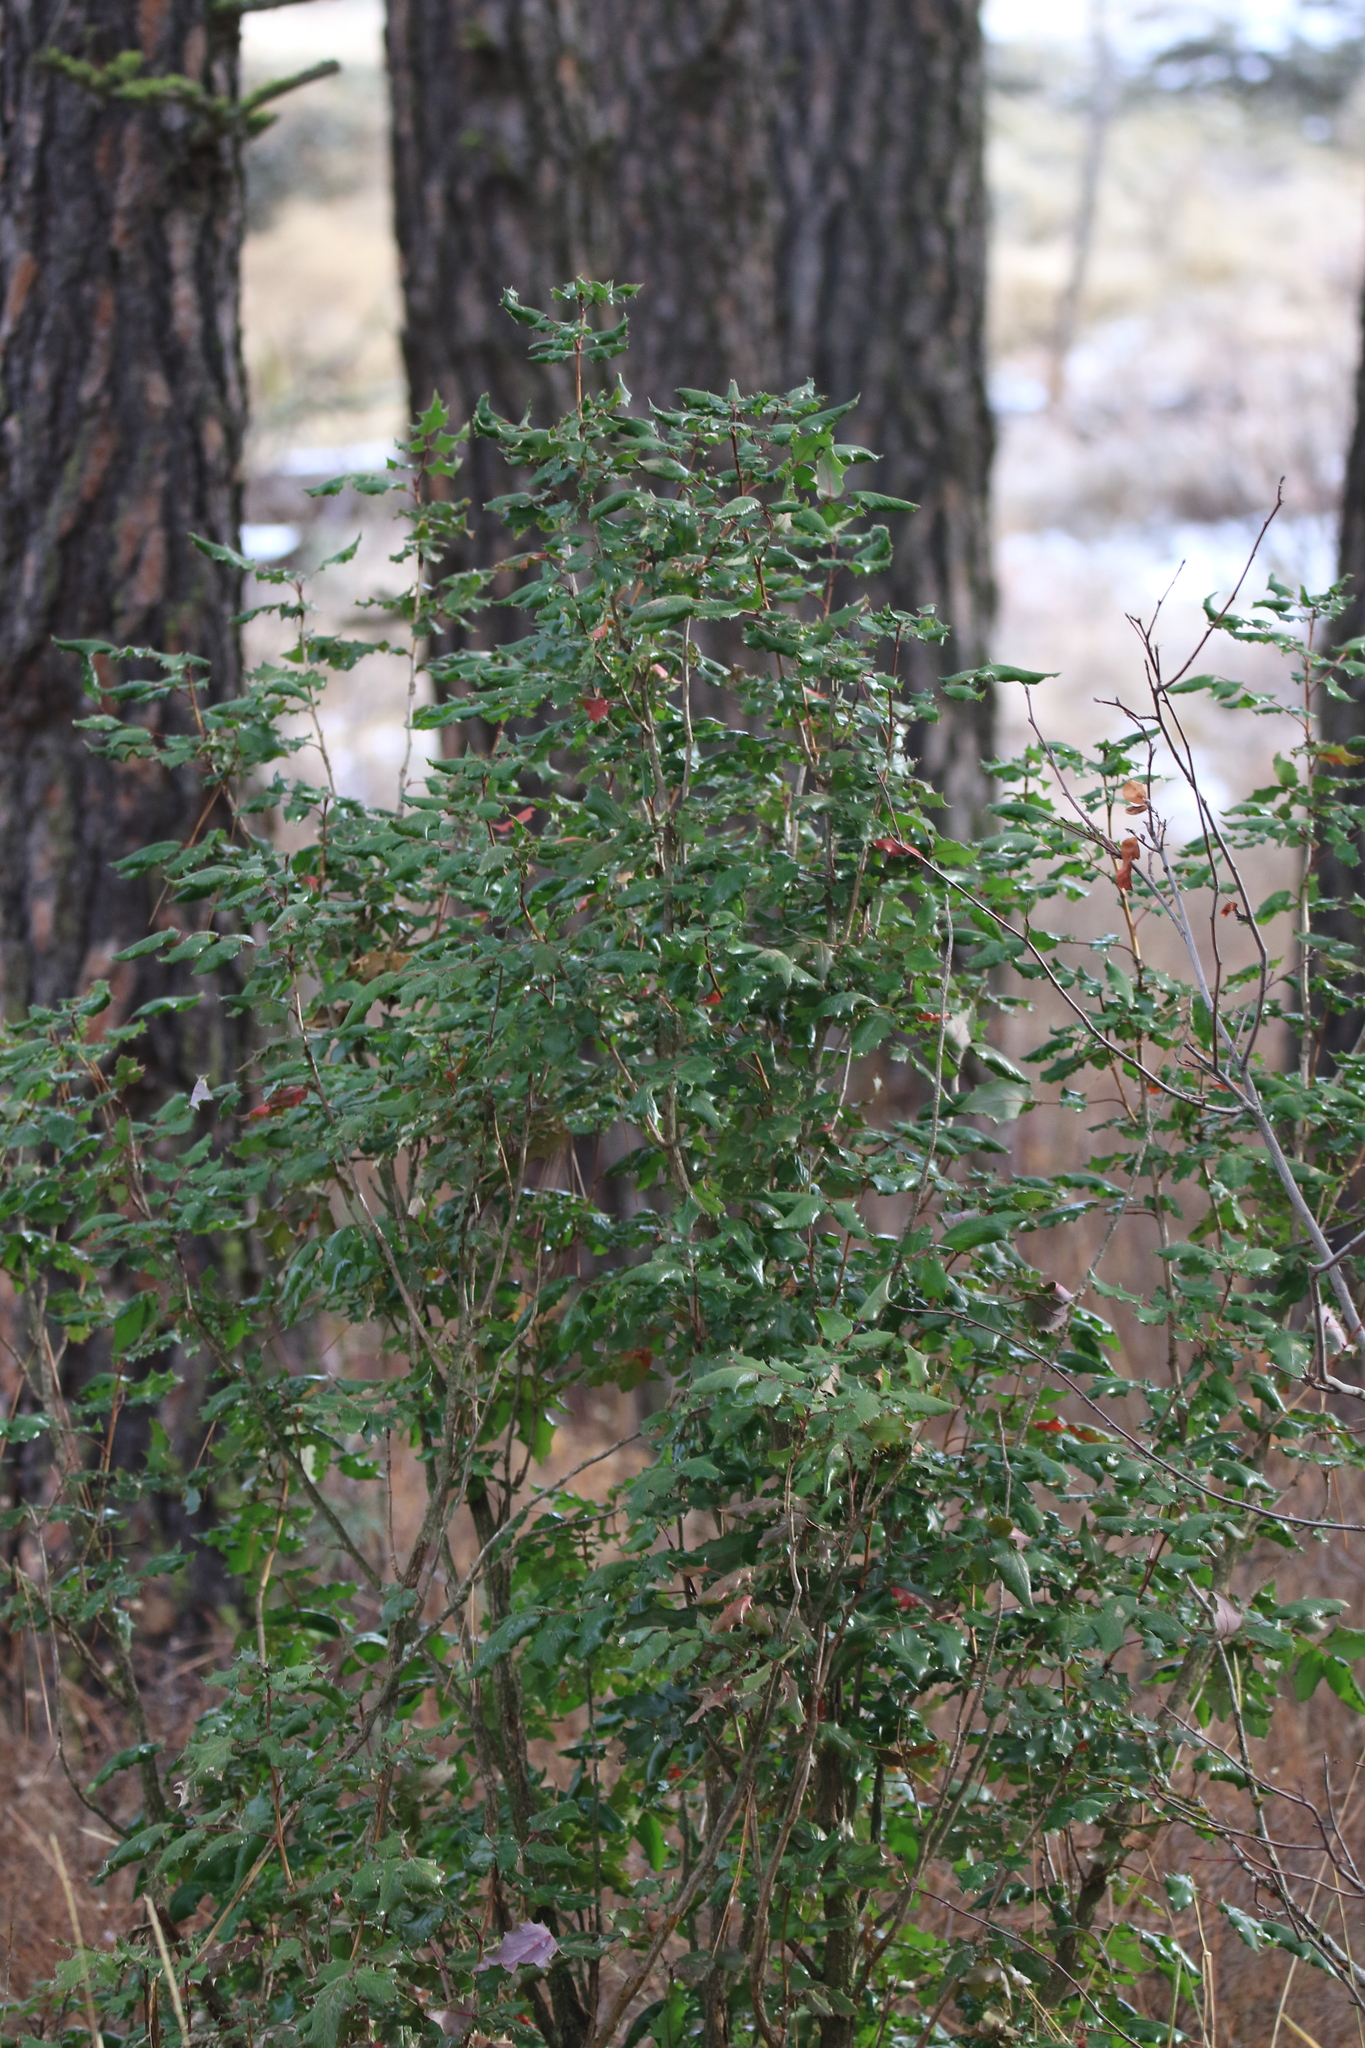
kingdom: Plantae
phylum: Tracheophyta
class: Magnoliopsida
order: Ranunculales
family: Berberidaceae
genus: Mahonia
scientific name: Mahonia aquifolium
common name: Oregon-grape
